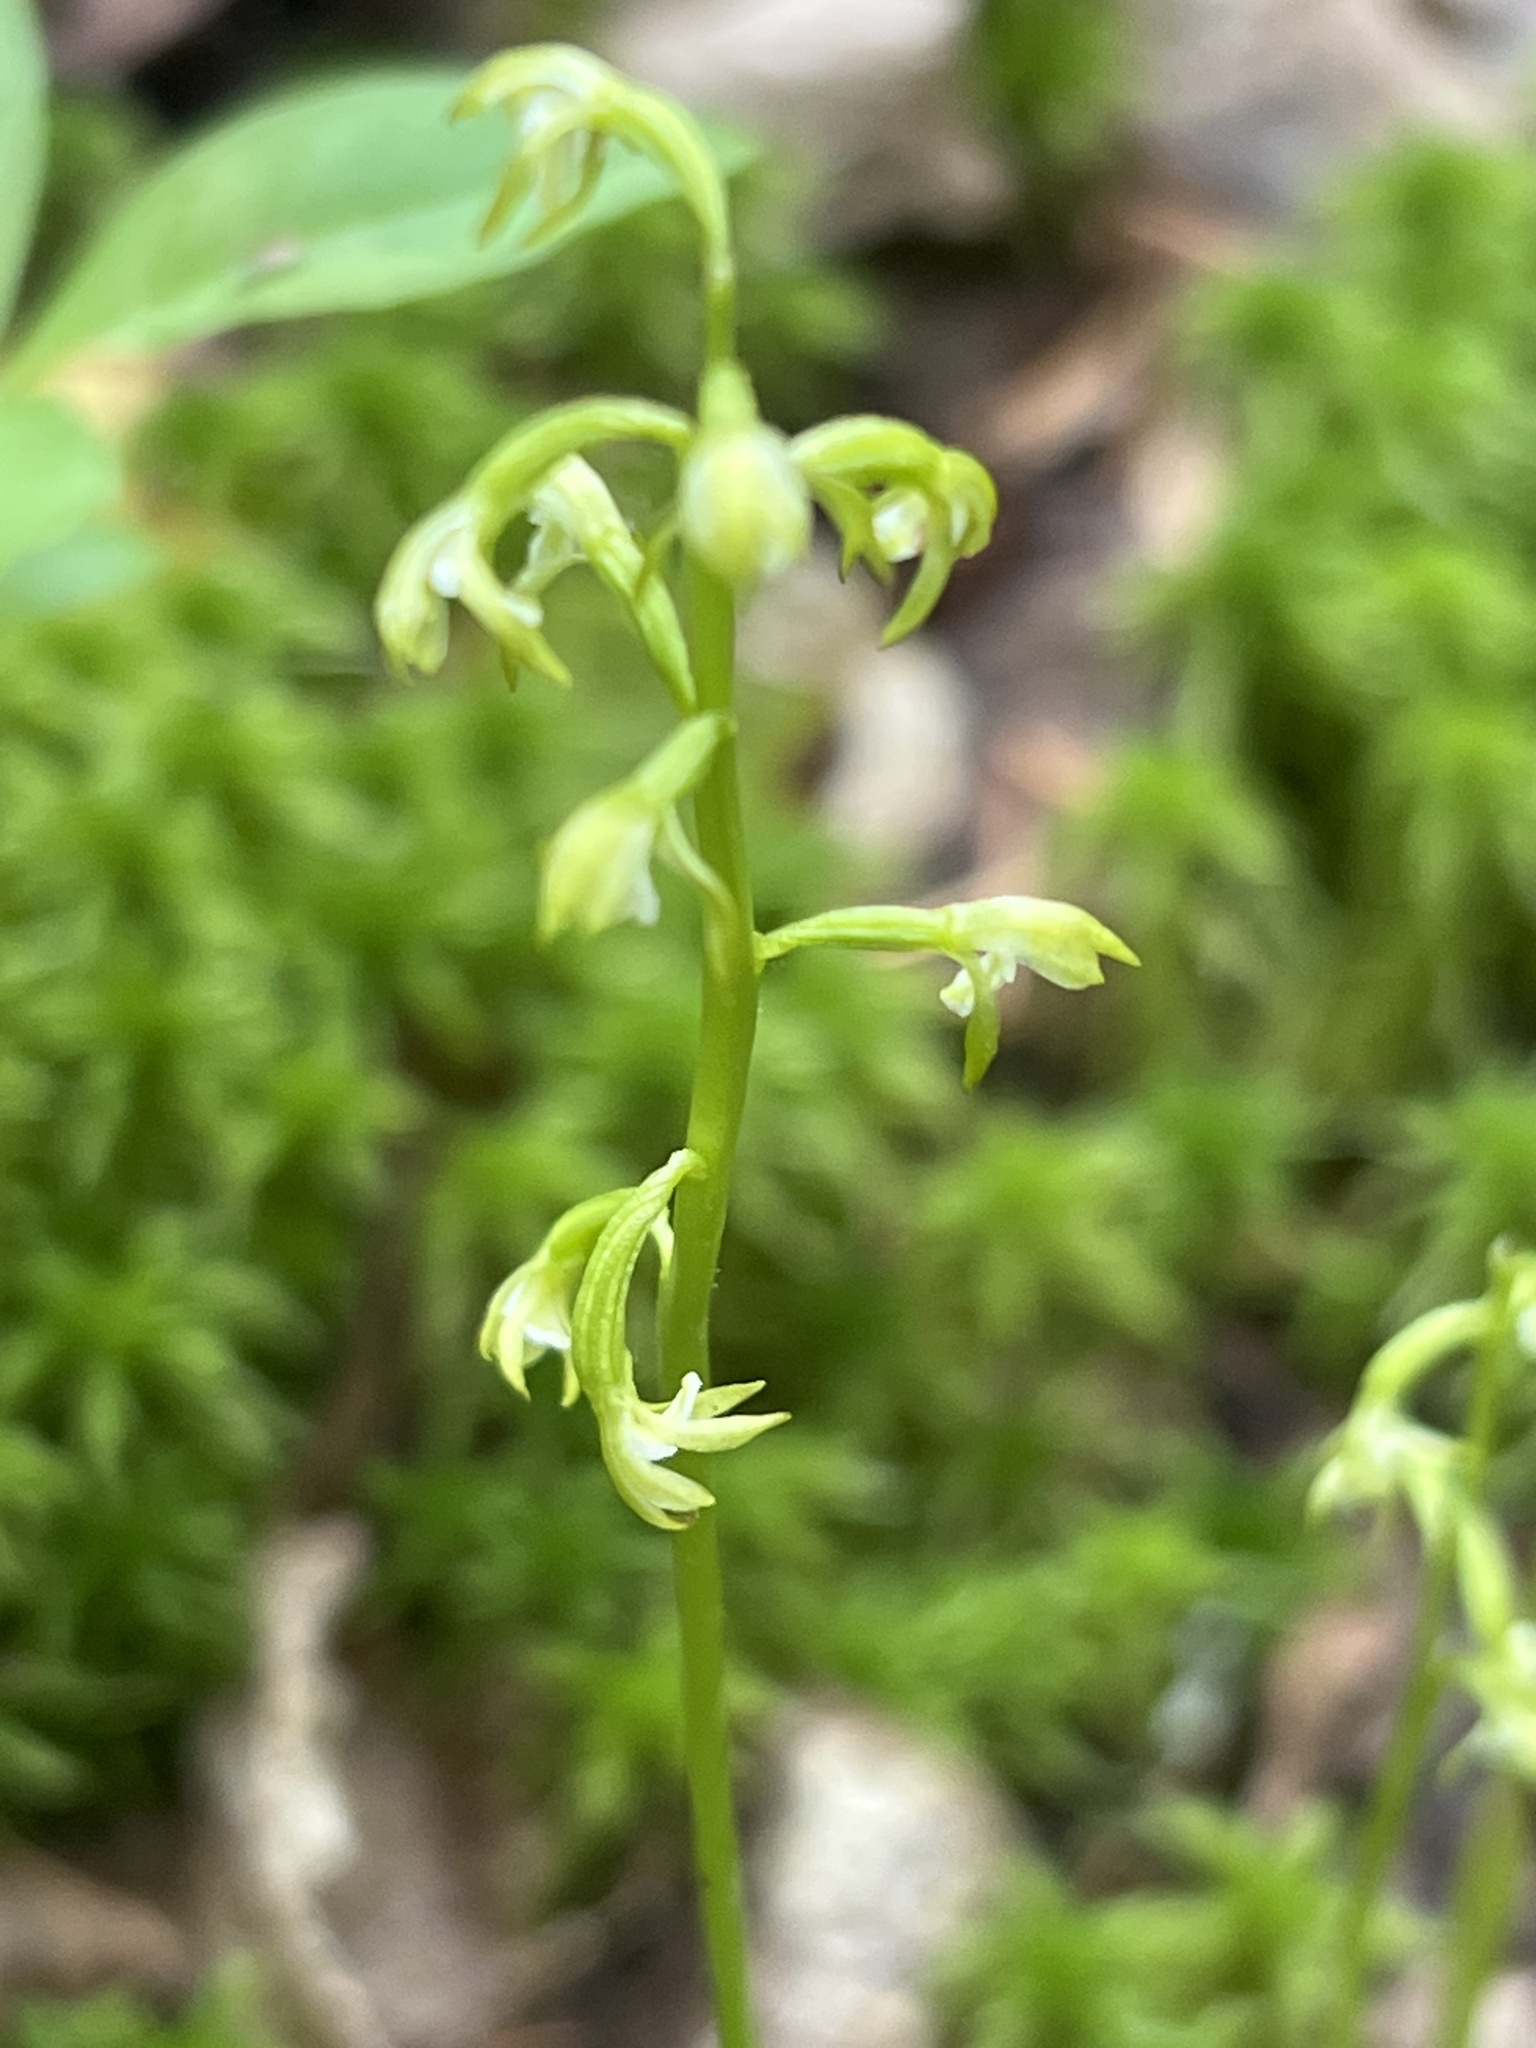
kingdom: Plantae
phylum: Tracheophyta
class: Liliopsida
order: Asparagales
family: Orchidaceae
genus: Corallorhiza
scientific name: Corallorhiza trifida
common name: Yellow coralroot
